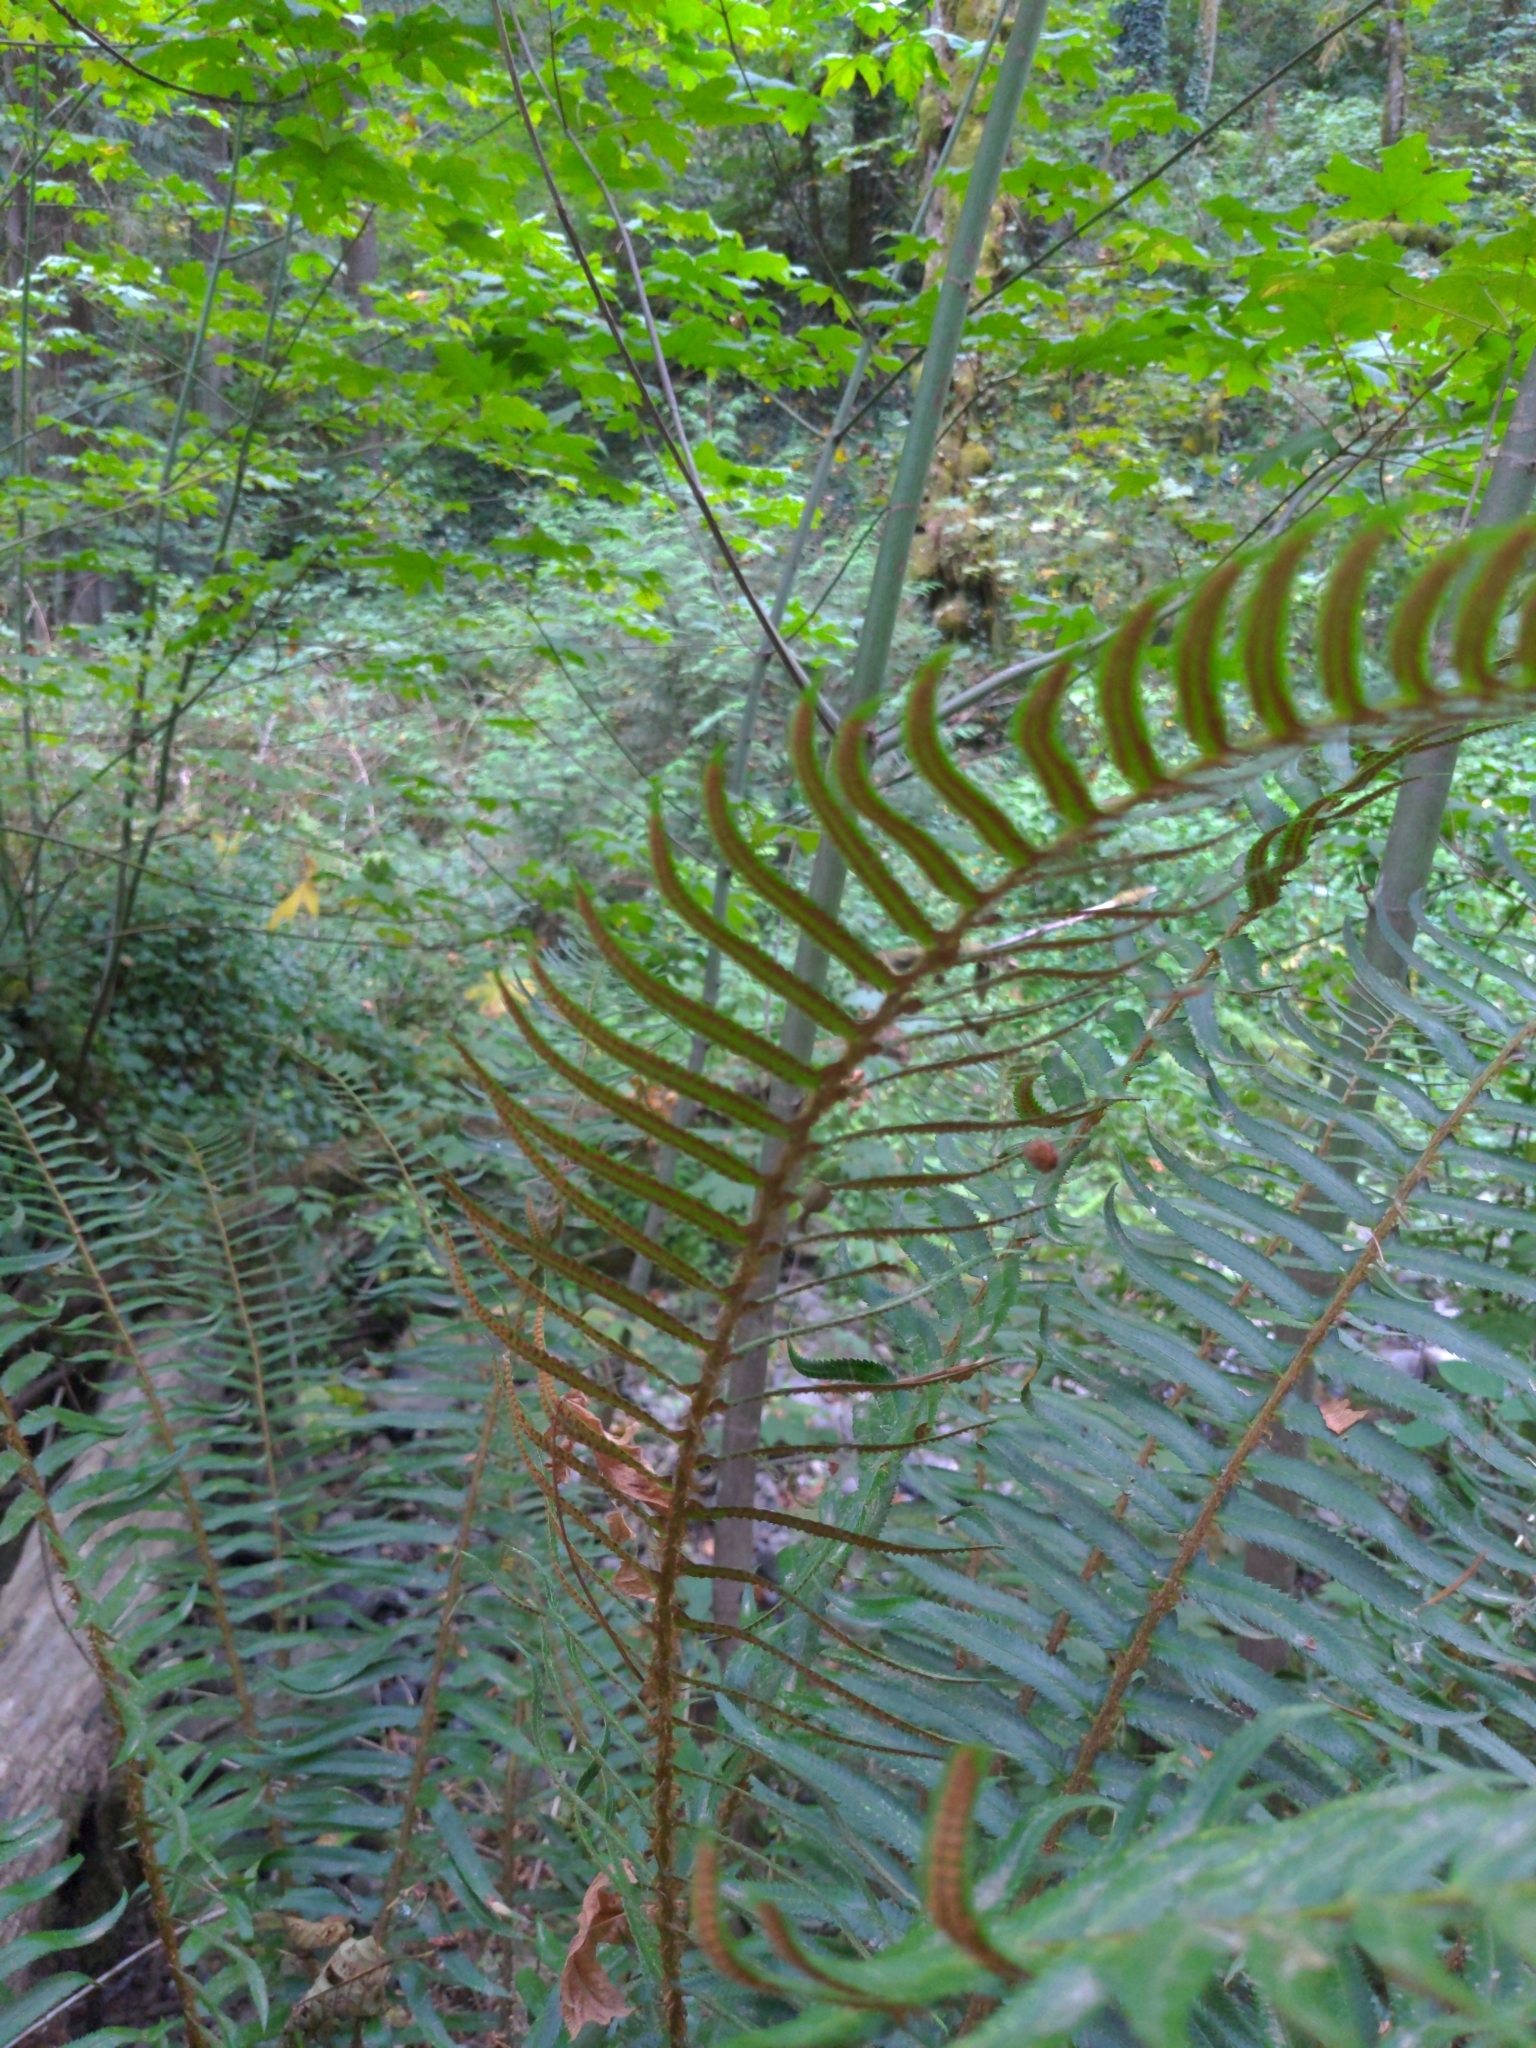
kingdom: Plantae
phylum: Tracheophyta
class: Polypodiopsida
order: Polypodiales
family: Dryopteridaceae
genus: Polystichum
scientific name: Polystichum munitum
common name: Western sword-fern
